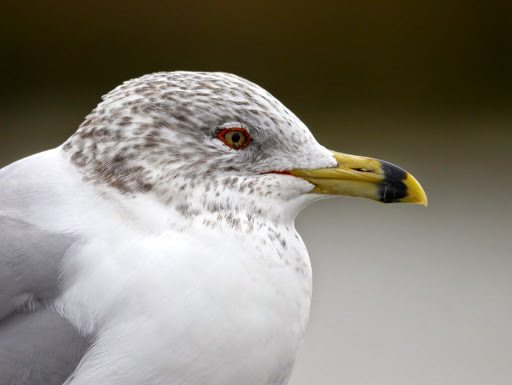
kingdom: Animalia
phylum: Chordata
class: Aves
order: Charadriiformes
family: Laridae
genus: Larus
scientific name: Larus delawarensis
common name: Ring-billed gull
